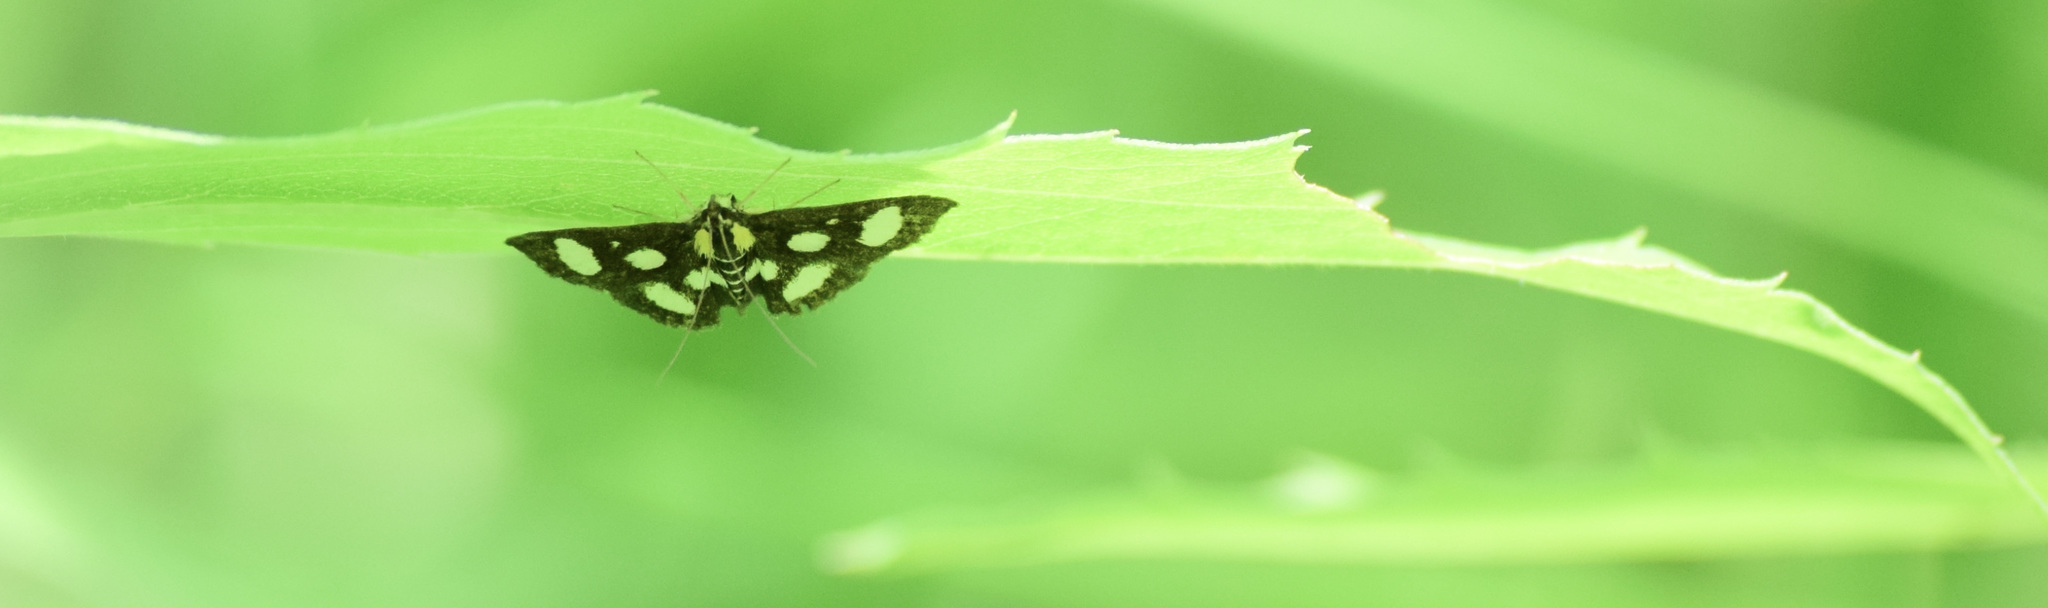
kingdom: Animalia
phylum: Arthropoda
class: Insecta
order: Lepidoptera
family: Crambidae
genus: Anania
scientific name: Anania funebris
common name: White-spotted sable moth
